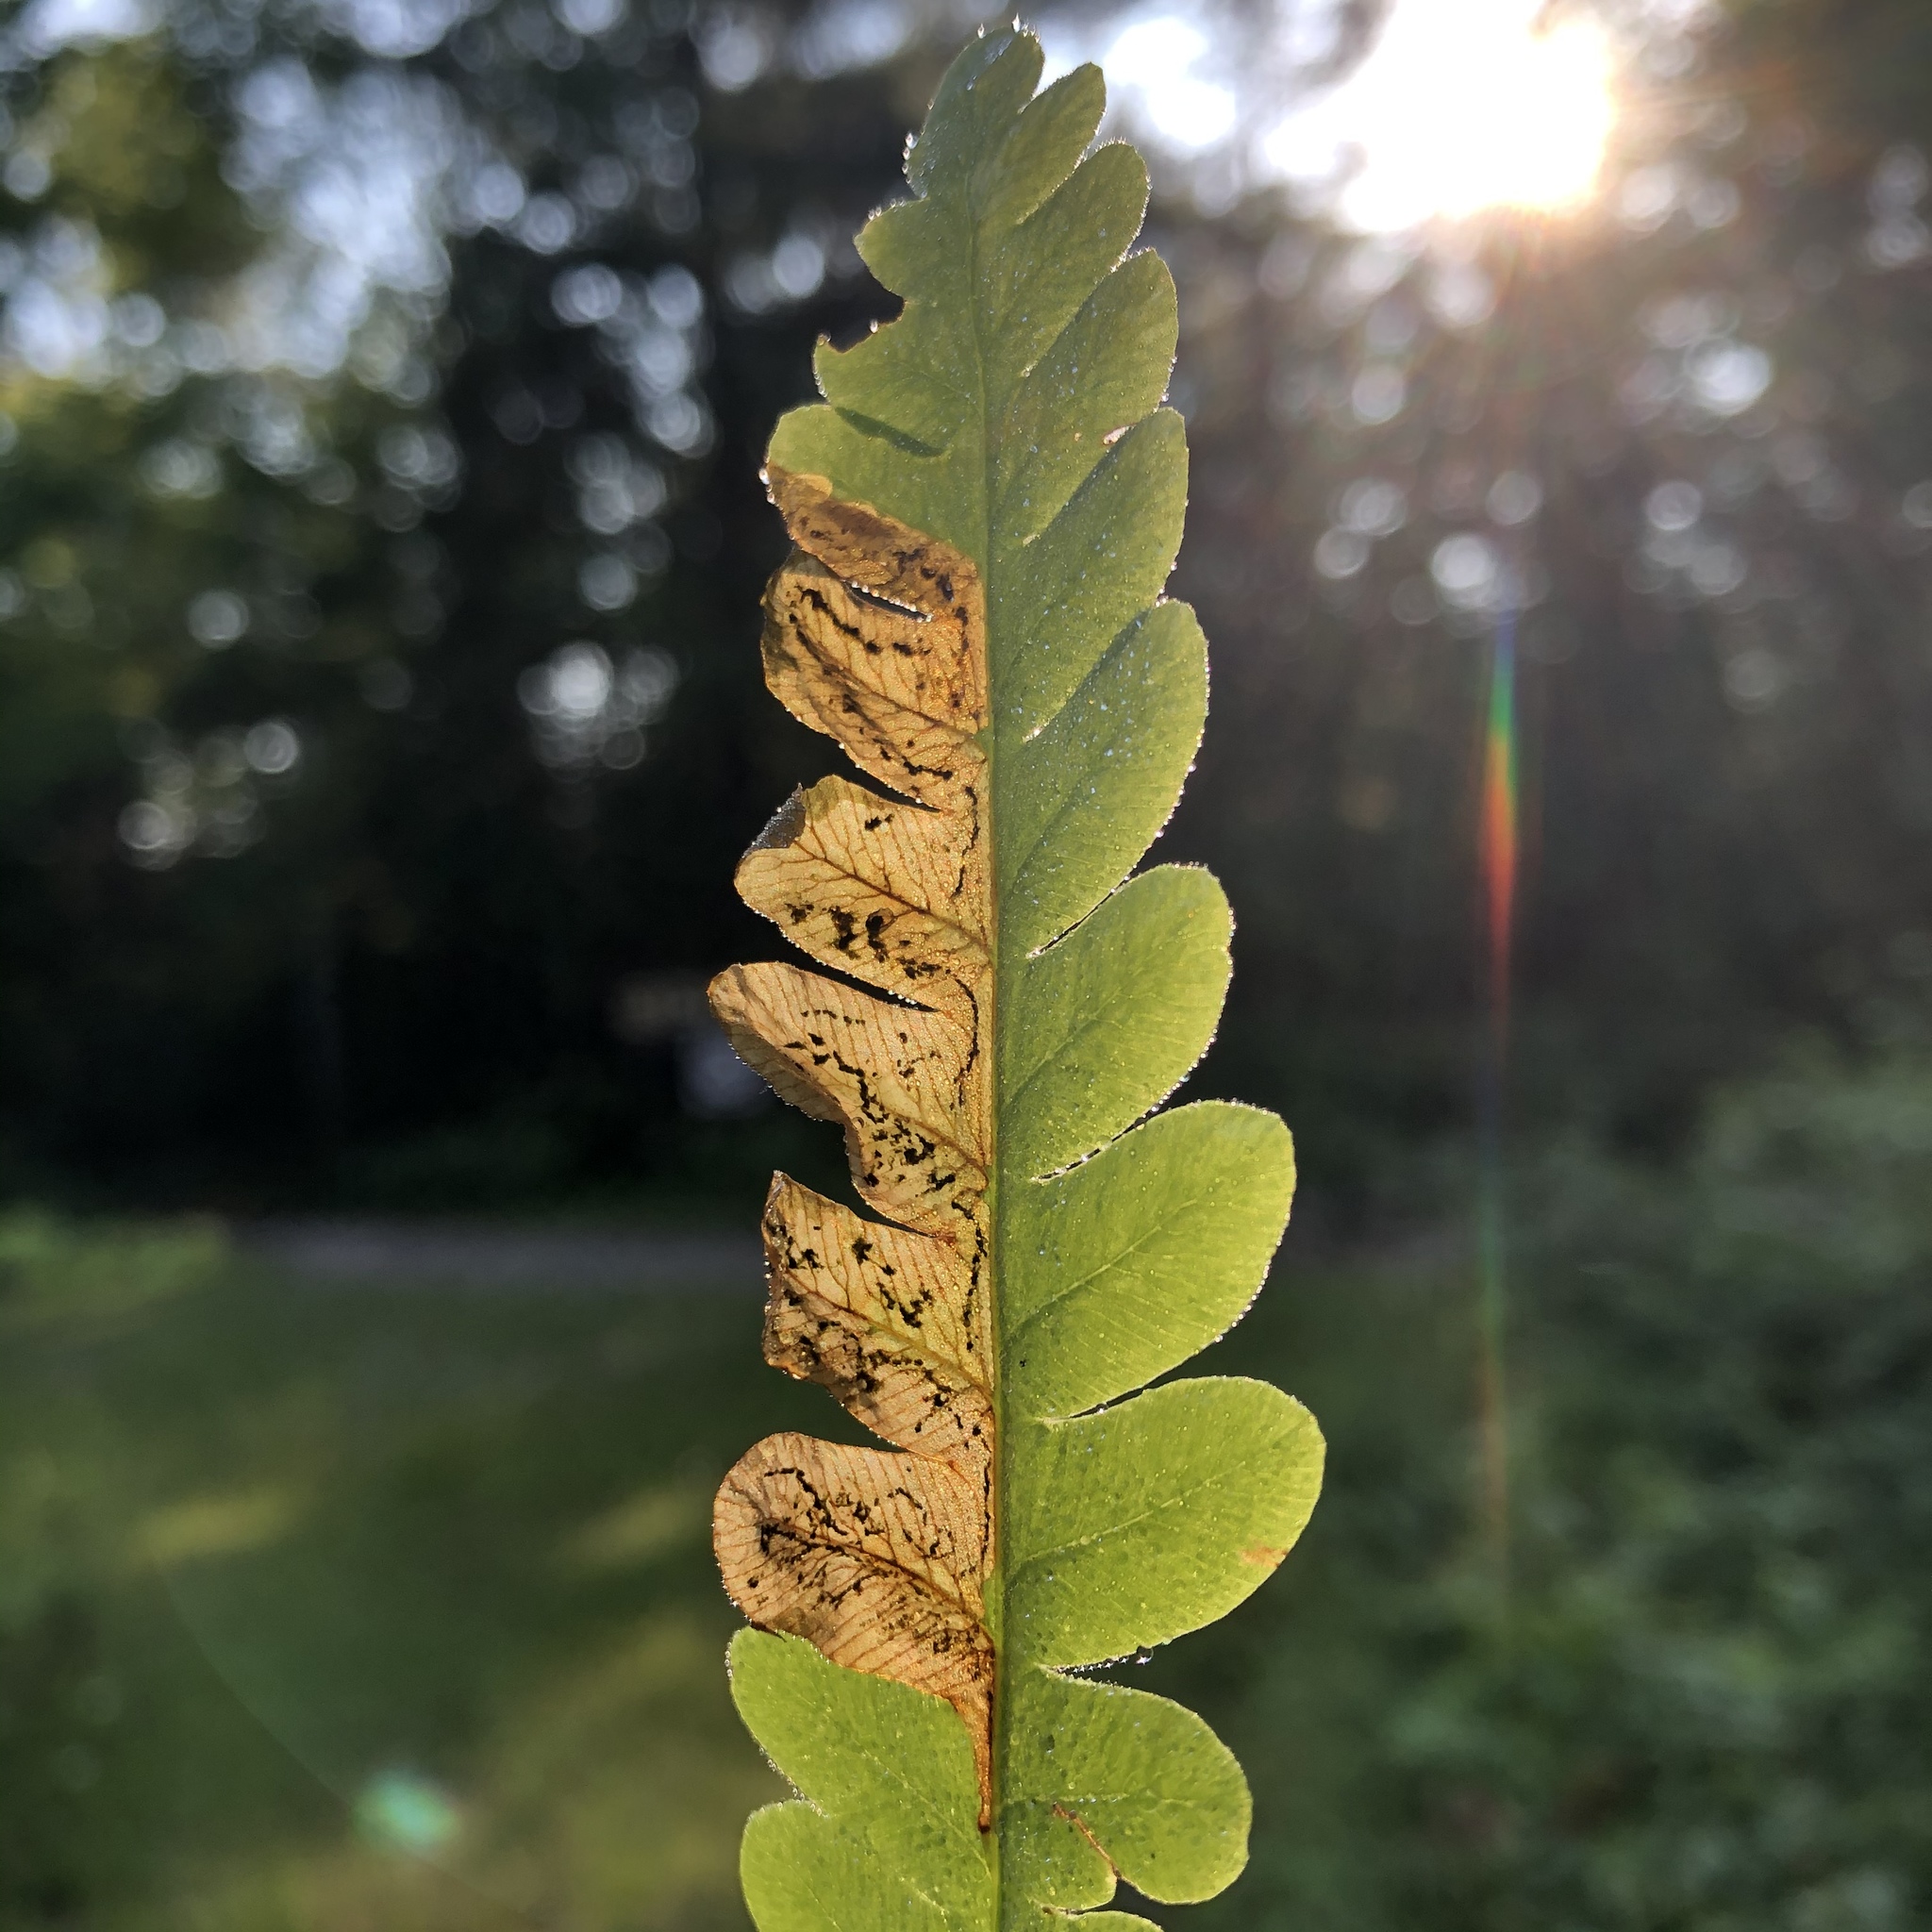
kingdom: Animalia
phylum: Arthropoda
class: Insecta
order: Diptera
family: Anthomyiidae
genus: Chirosia
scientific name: Chirosia filicis
